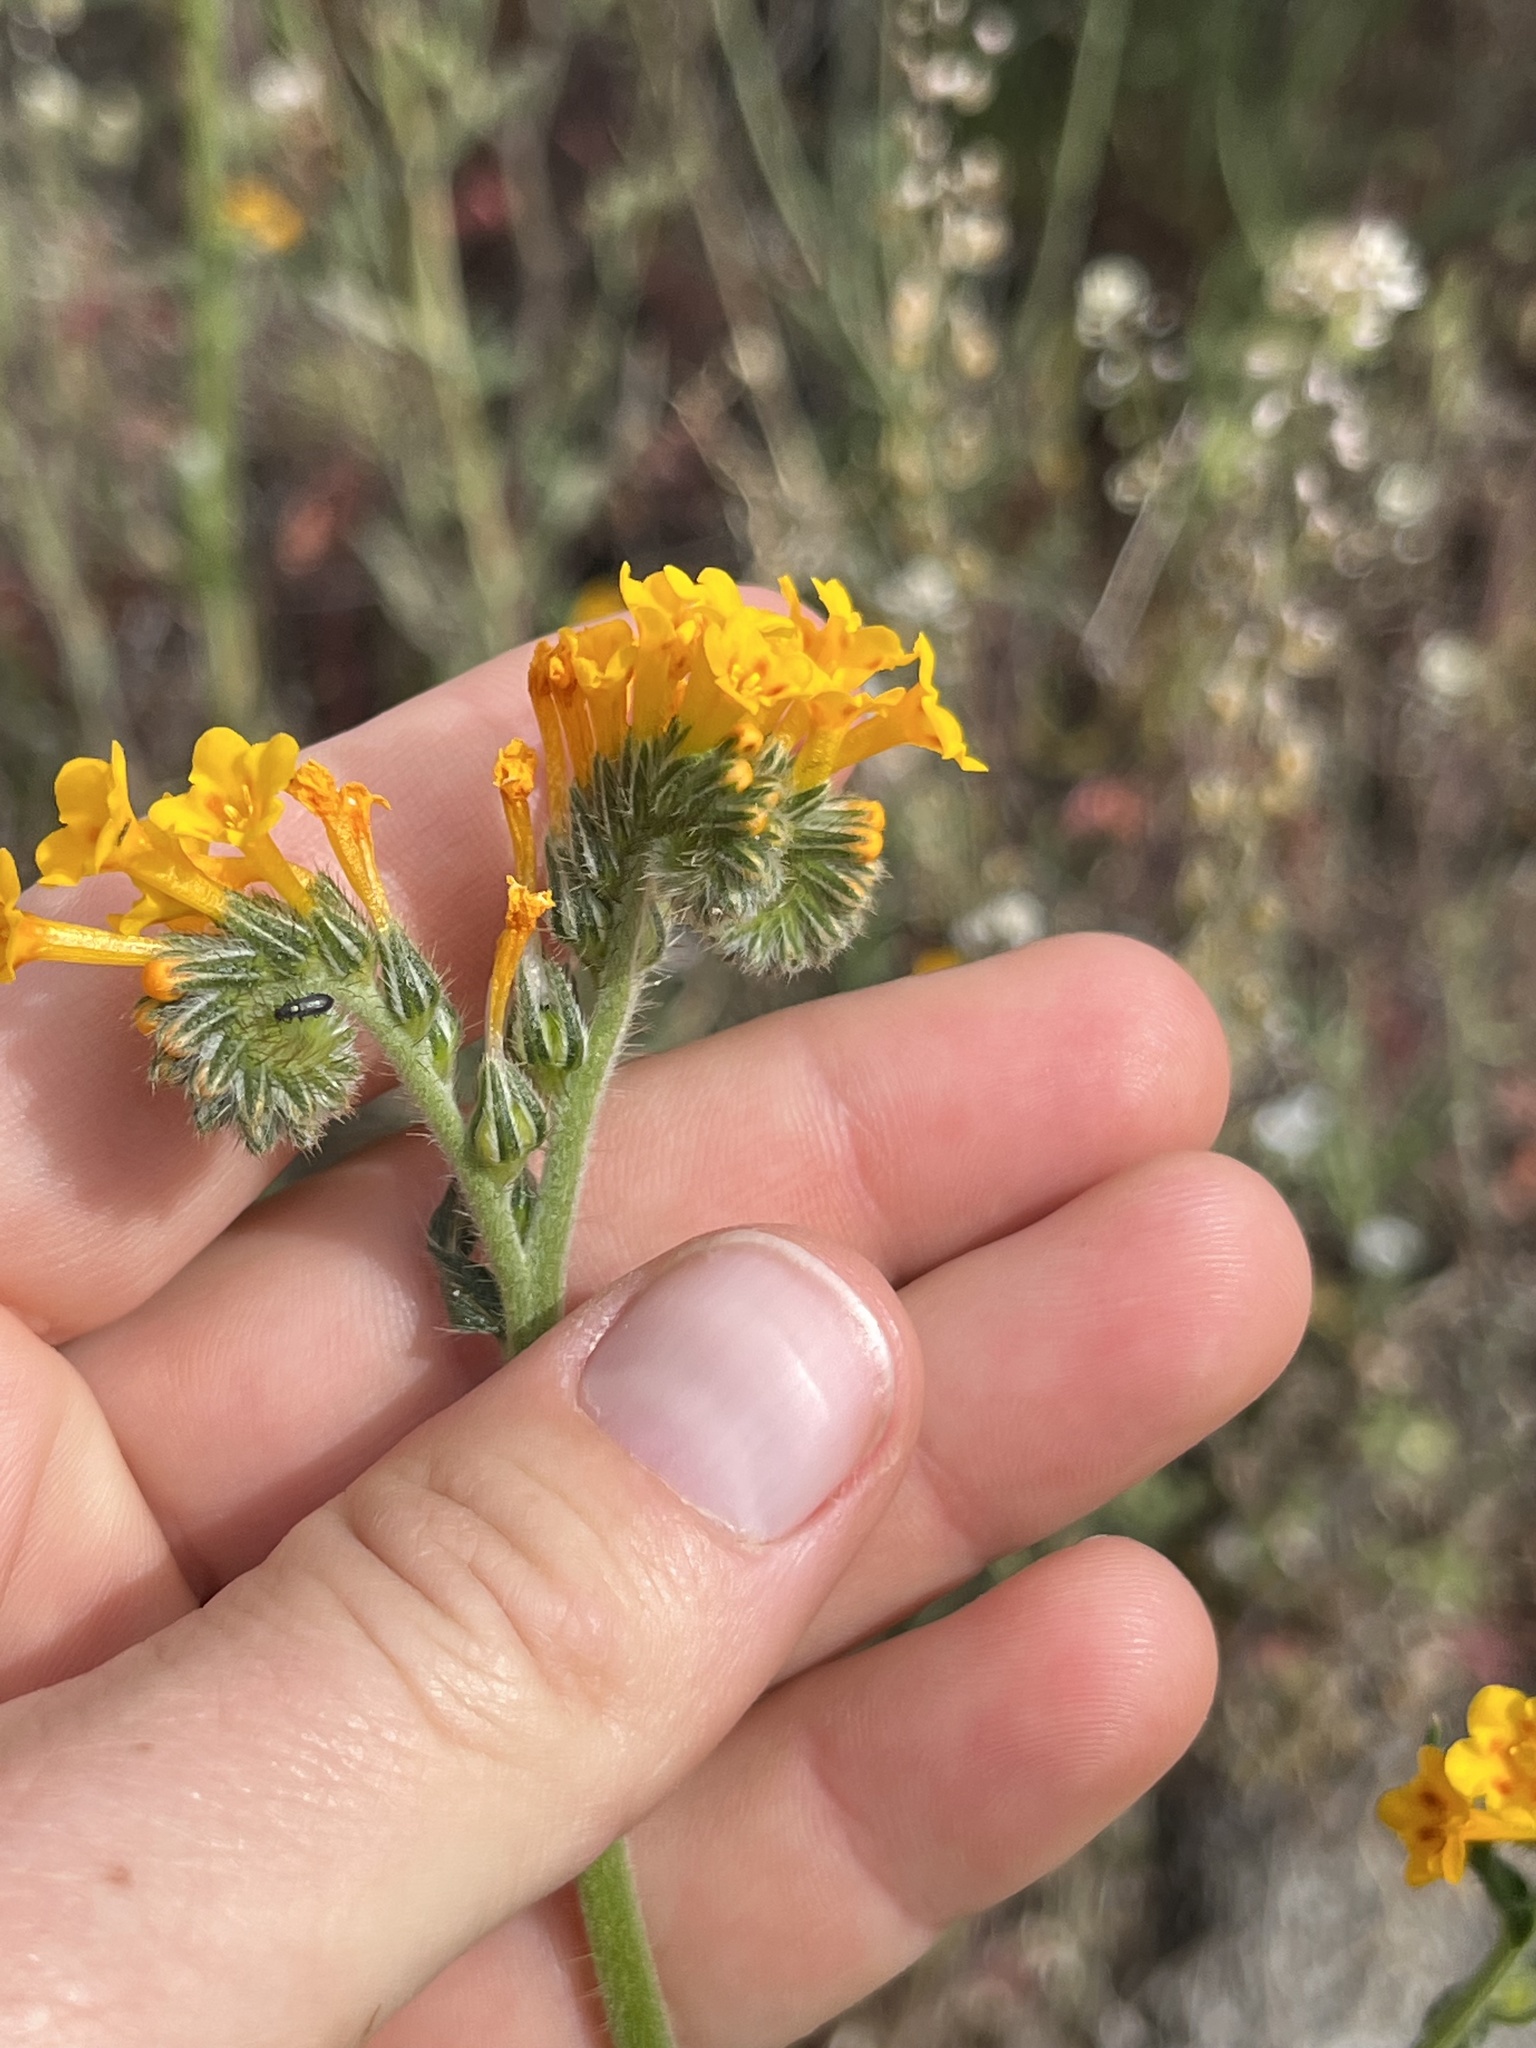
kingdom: Plantae
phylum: Tracheophyta
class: Magnoliopsida
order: Boraginales
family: Boraginaceae
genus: Amsinckia
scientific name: Amsinckia eastwoodiae
